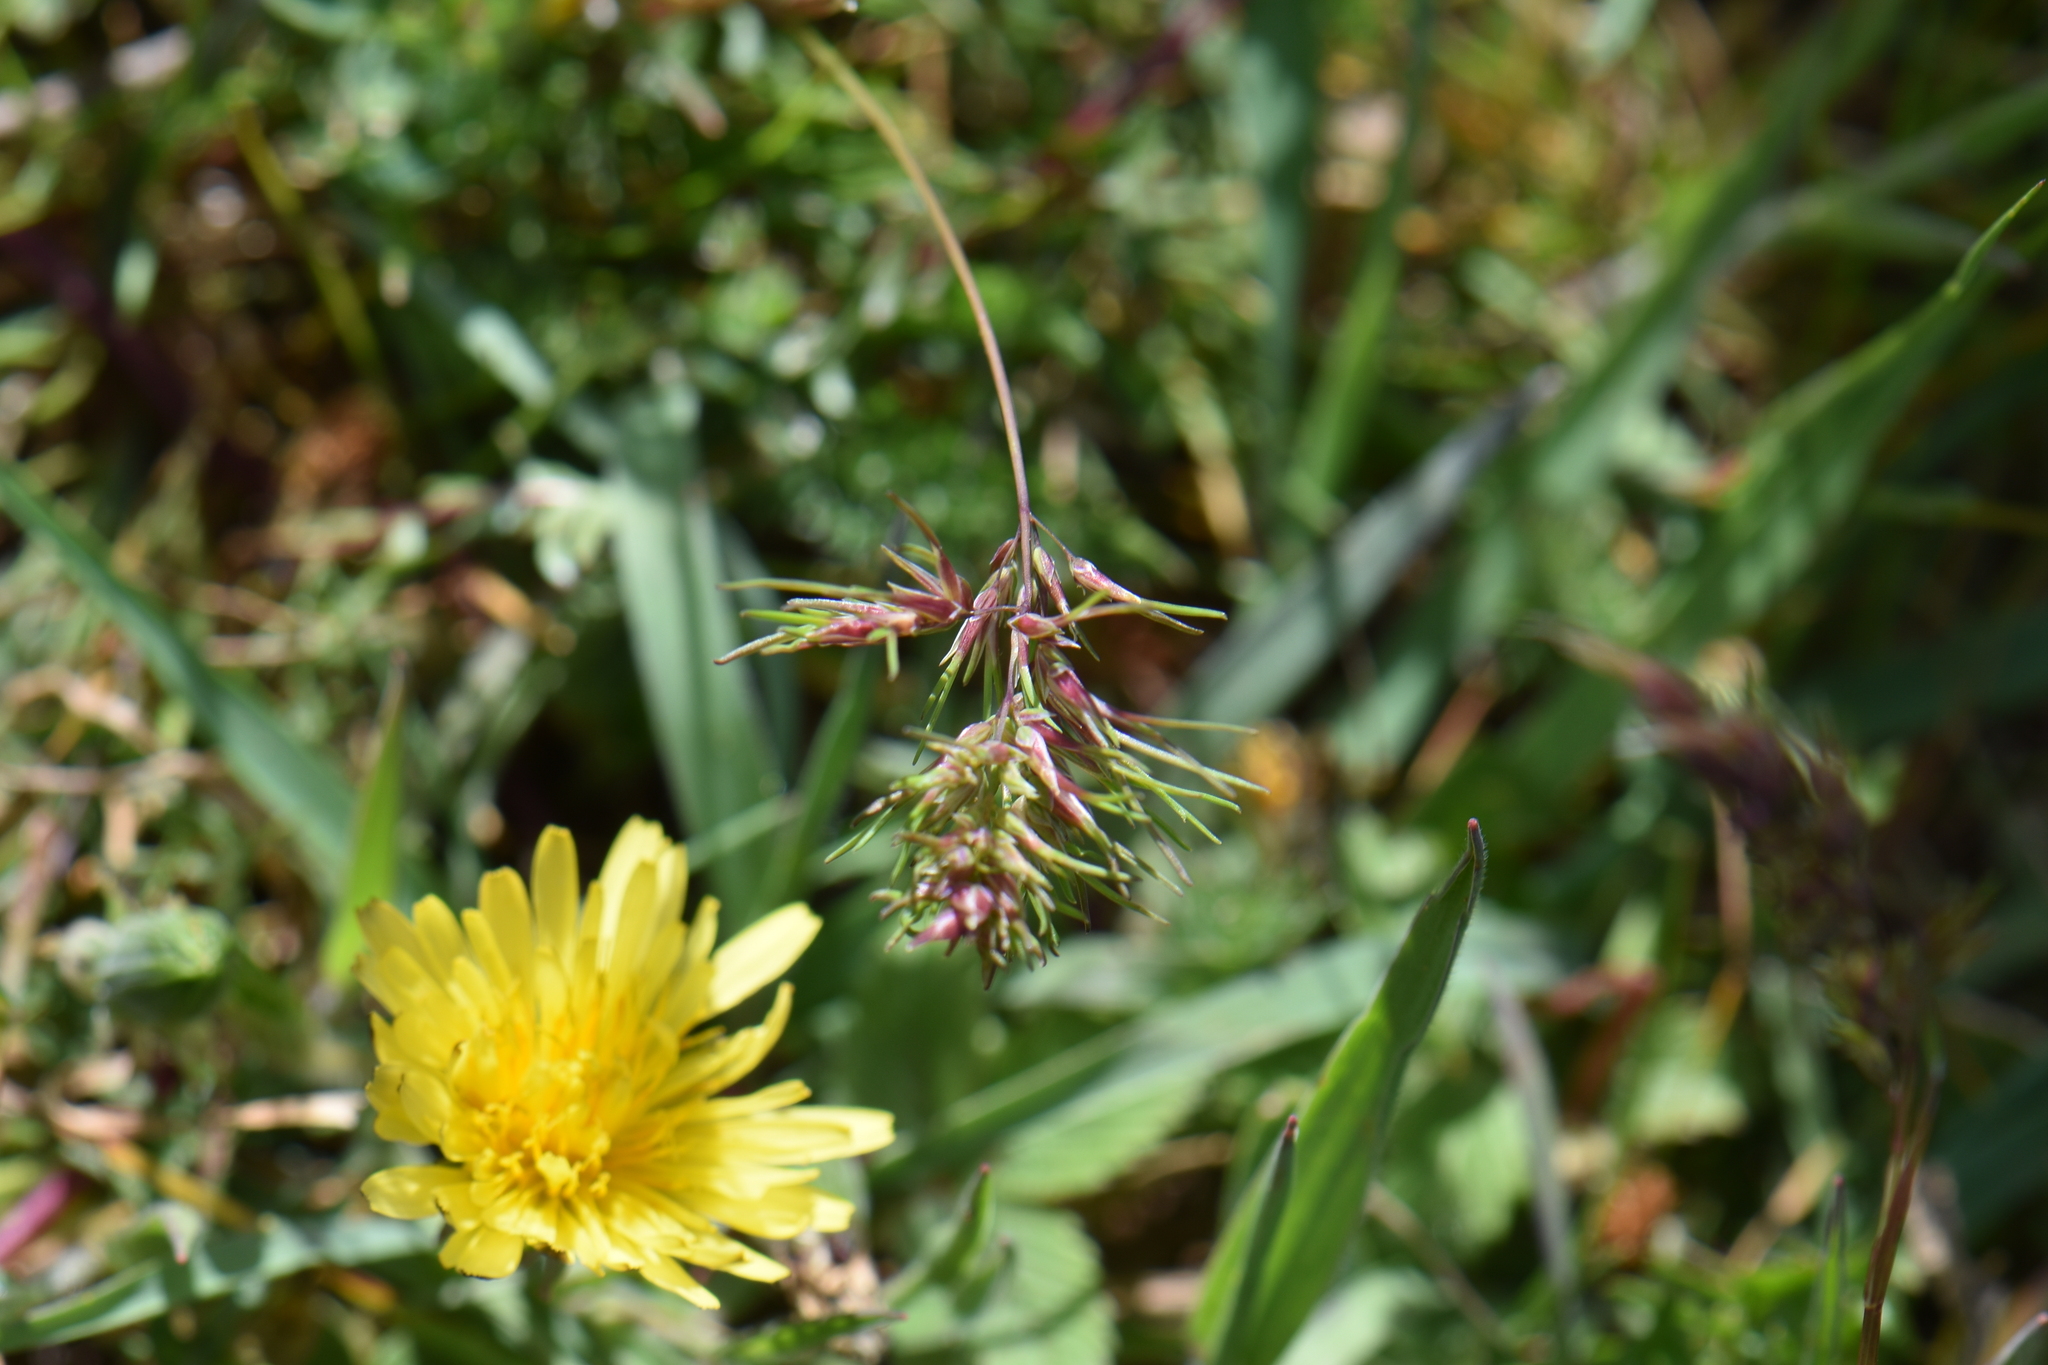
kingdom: Plantae
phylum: Tracheophyta
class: Liliopsida
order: Poales
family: Poaceae
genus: Poa
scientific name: Poa bulbosa
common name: Bulbous bluegrass
